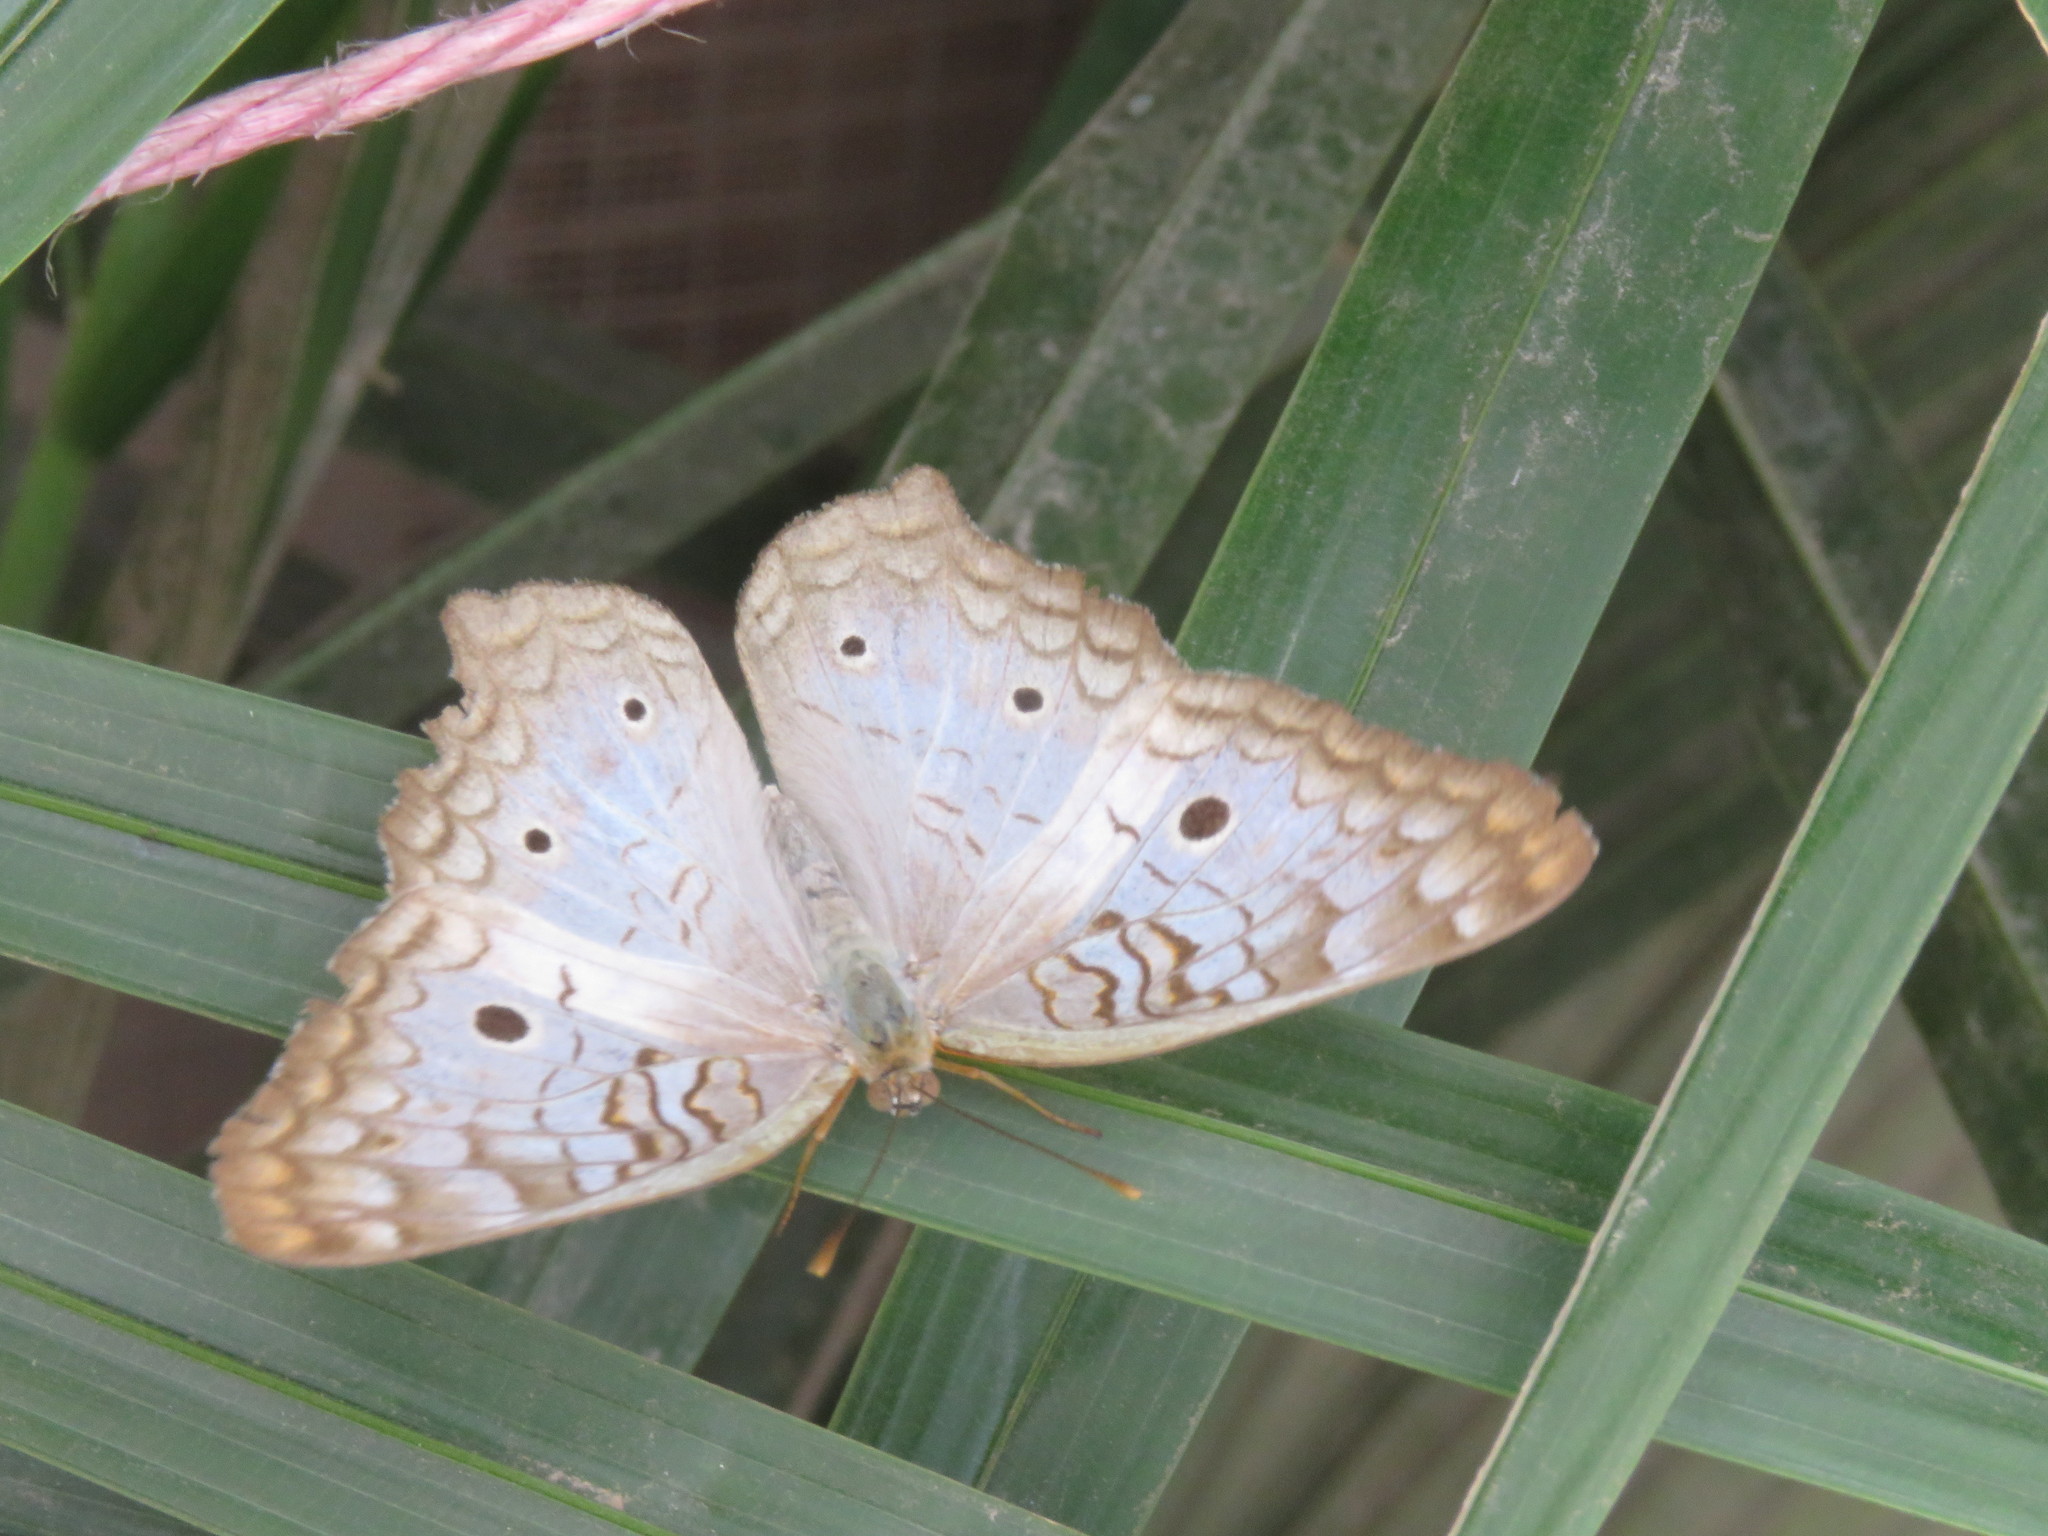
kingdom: Animalia
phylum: Arthropoda
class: Insecta
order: Lepidoptera
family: Nymphalidae
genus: Anartia
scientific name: Anartia jatrophae
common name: White peacock
